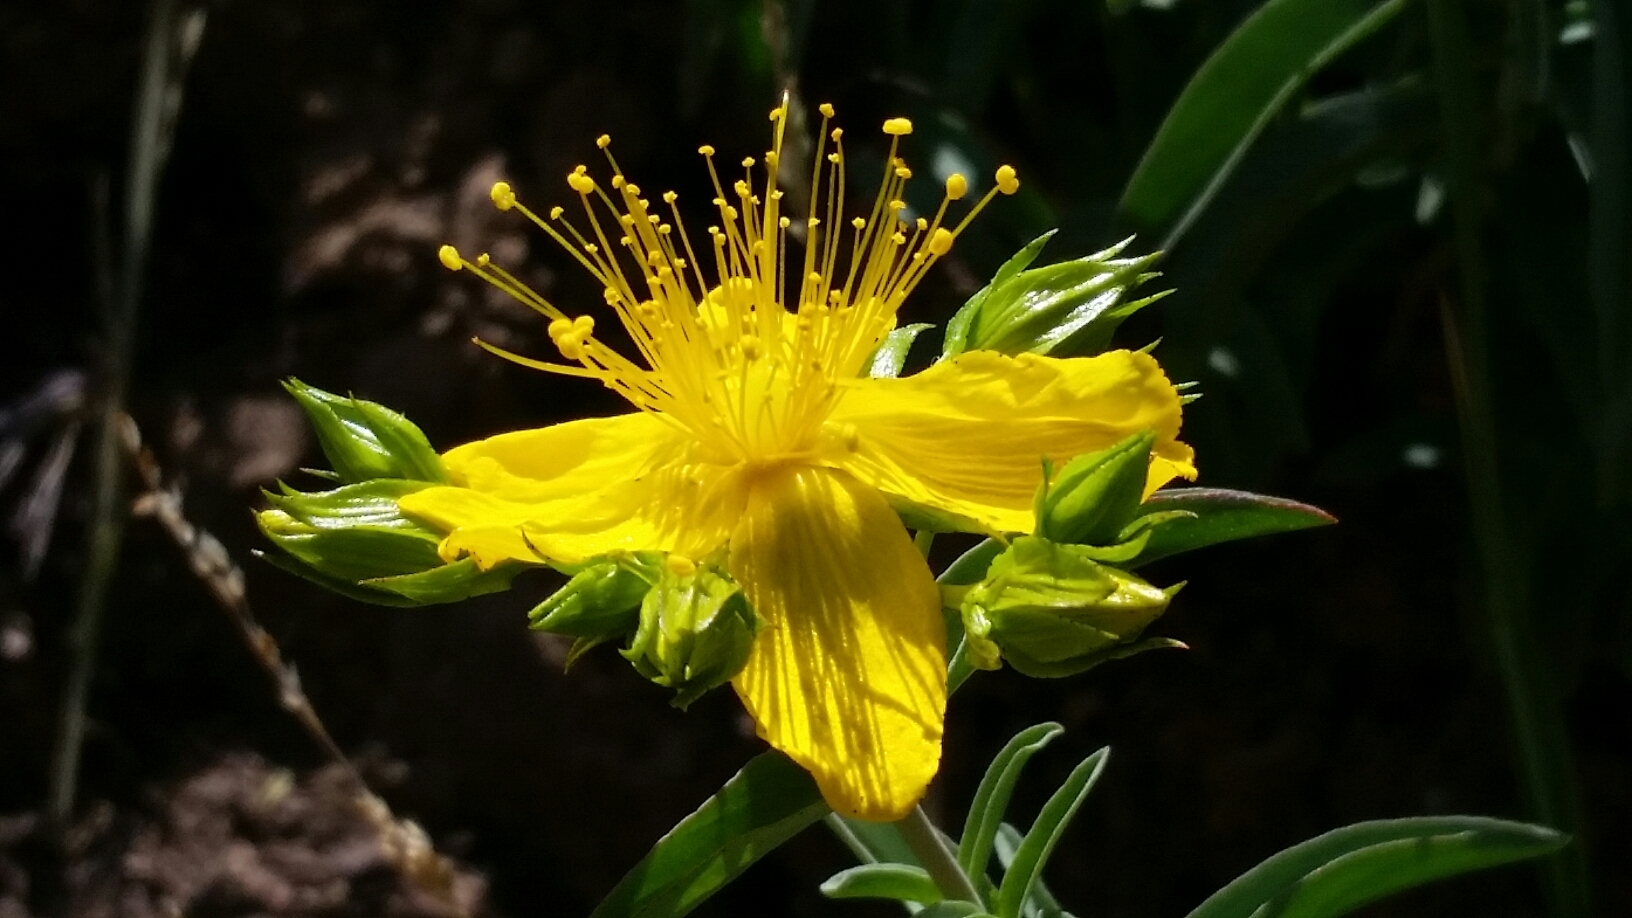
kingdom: Plantae
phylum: Tracheophyta
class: Magnoliopsida
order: Malpighiales
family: Hypericaceae
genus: Hypericum
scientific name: Hypericum concinnum
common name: Gold-wire
